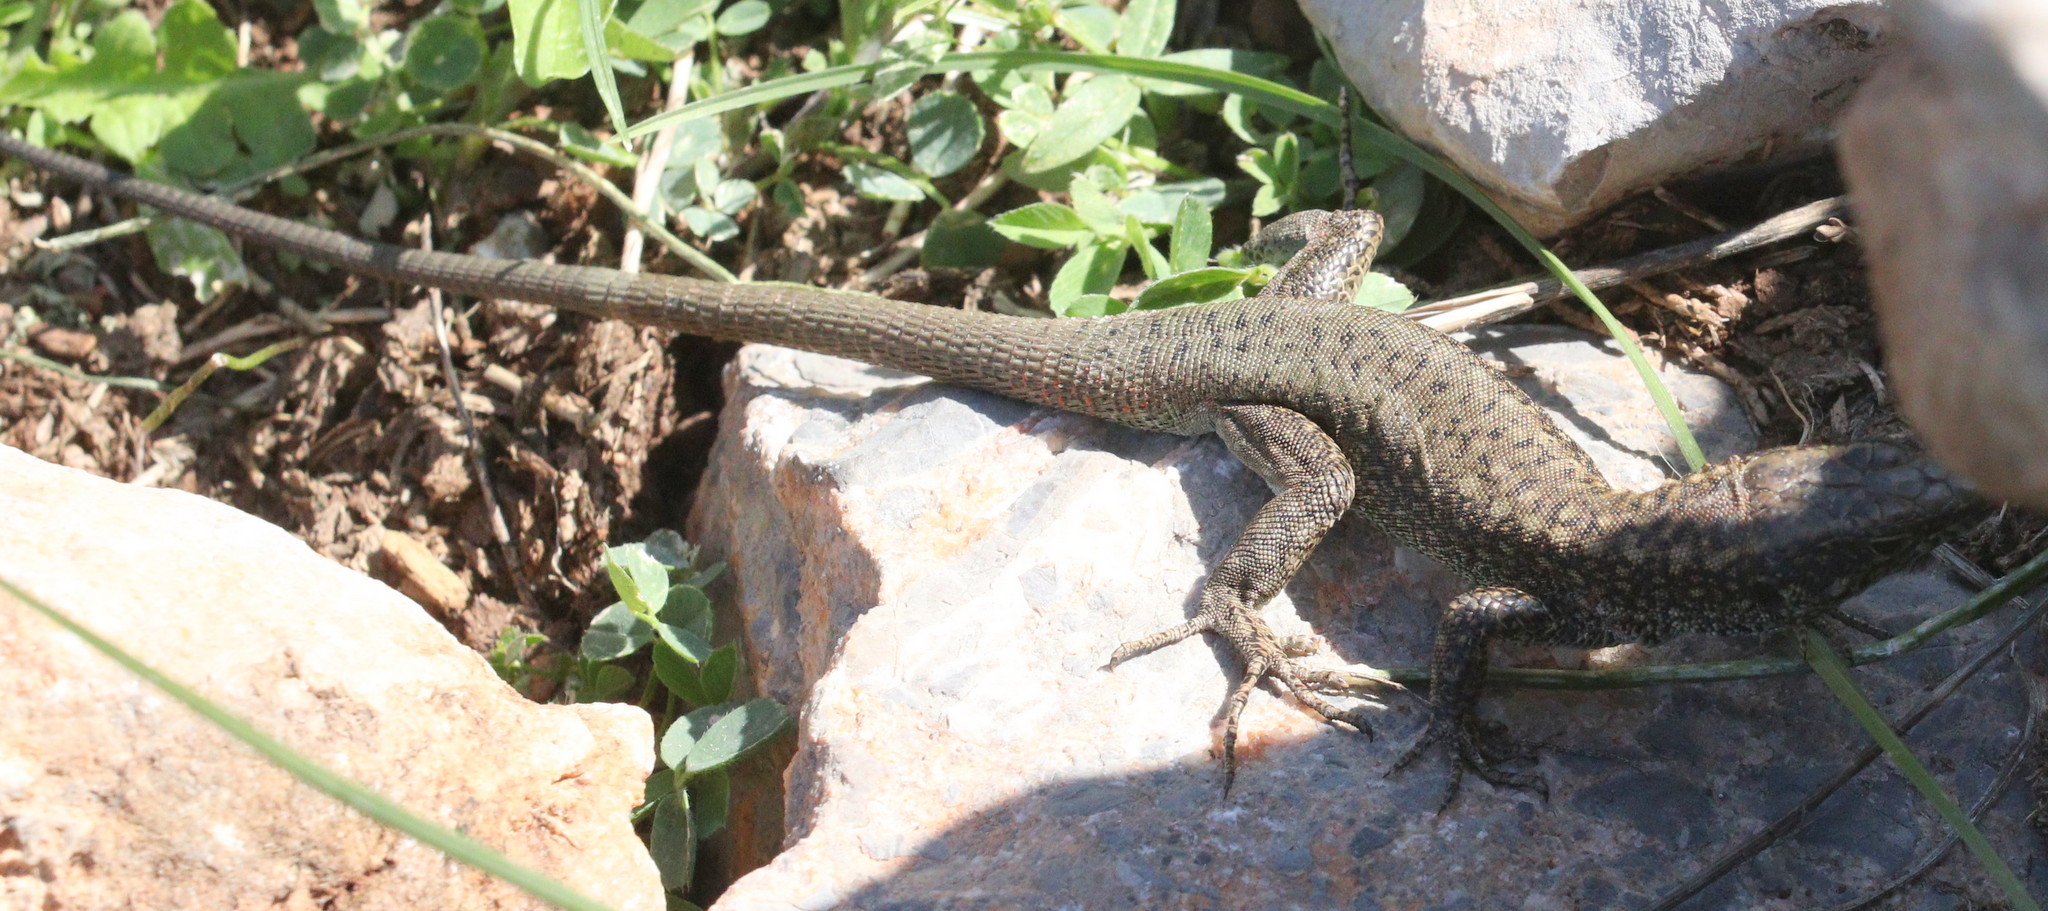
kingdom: Animalia
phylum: Chordata
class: Squamata
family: Lacertidae
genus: Anatololacerta
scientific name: Anatololacerta danfordi
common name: Danford's lizard
